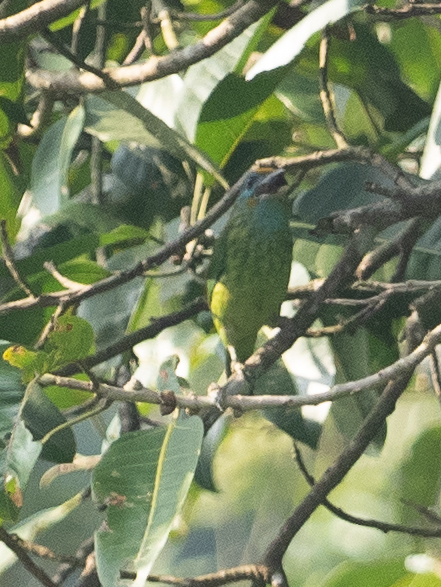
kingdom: Animalia
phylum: Chordata
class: Aves
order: Piciformes
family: Megalaimidae
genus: Psilopogon
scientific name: Psilopogon flavifrons
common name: Yellow-fronted barbet
